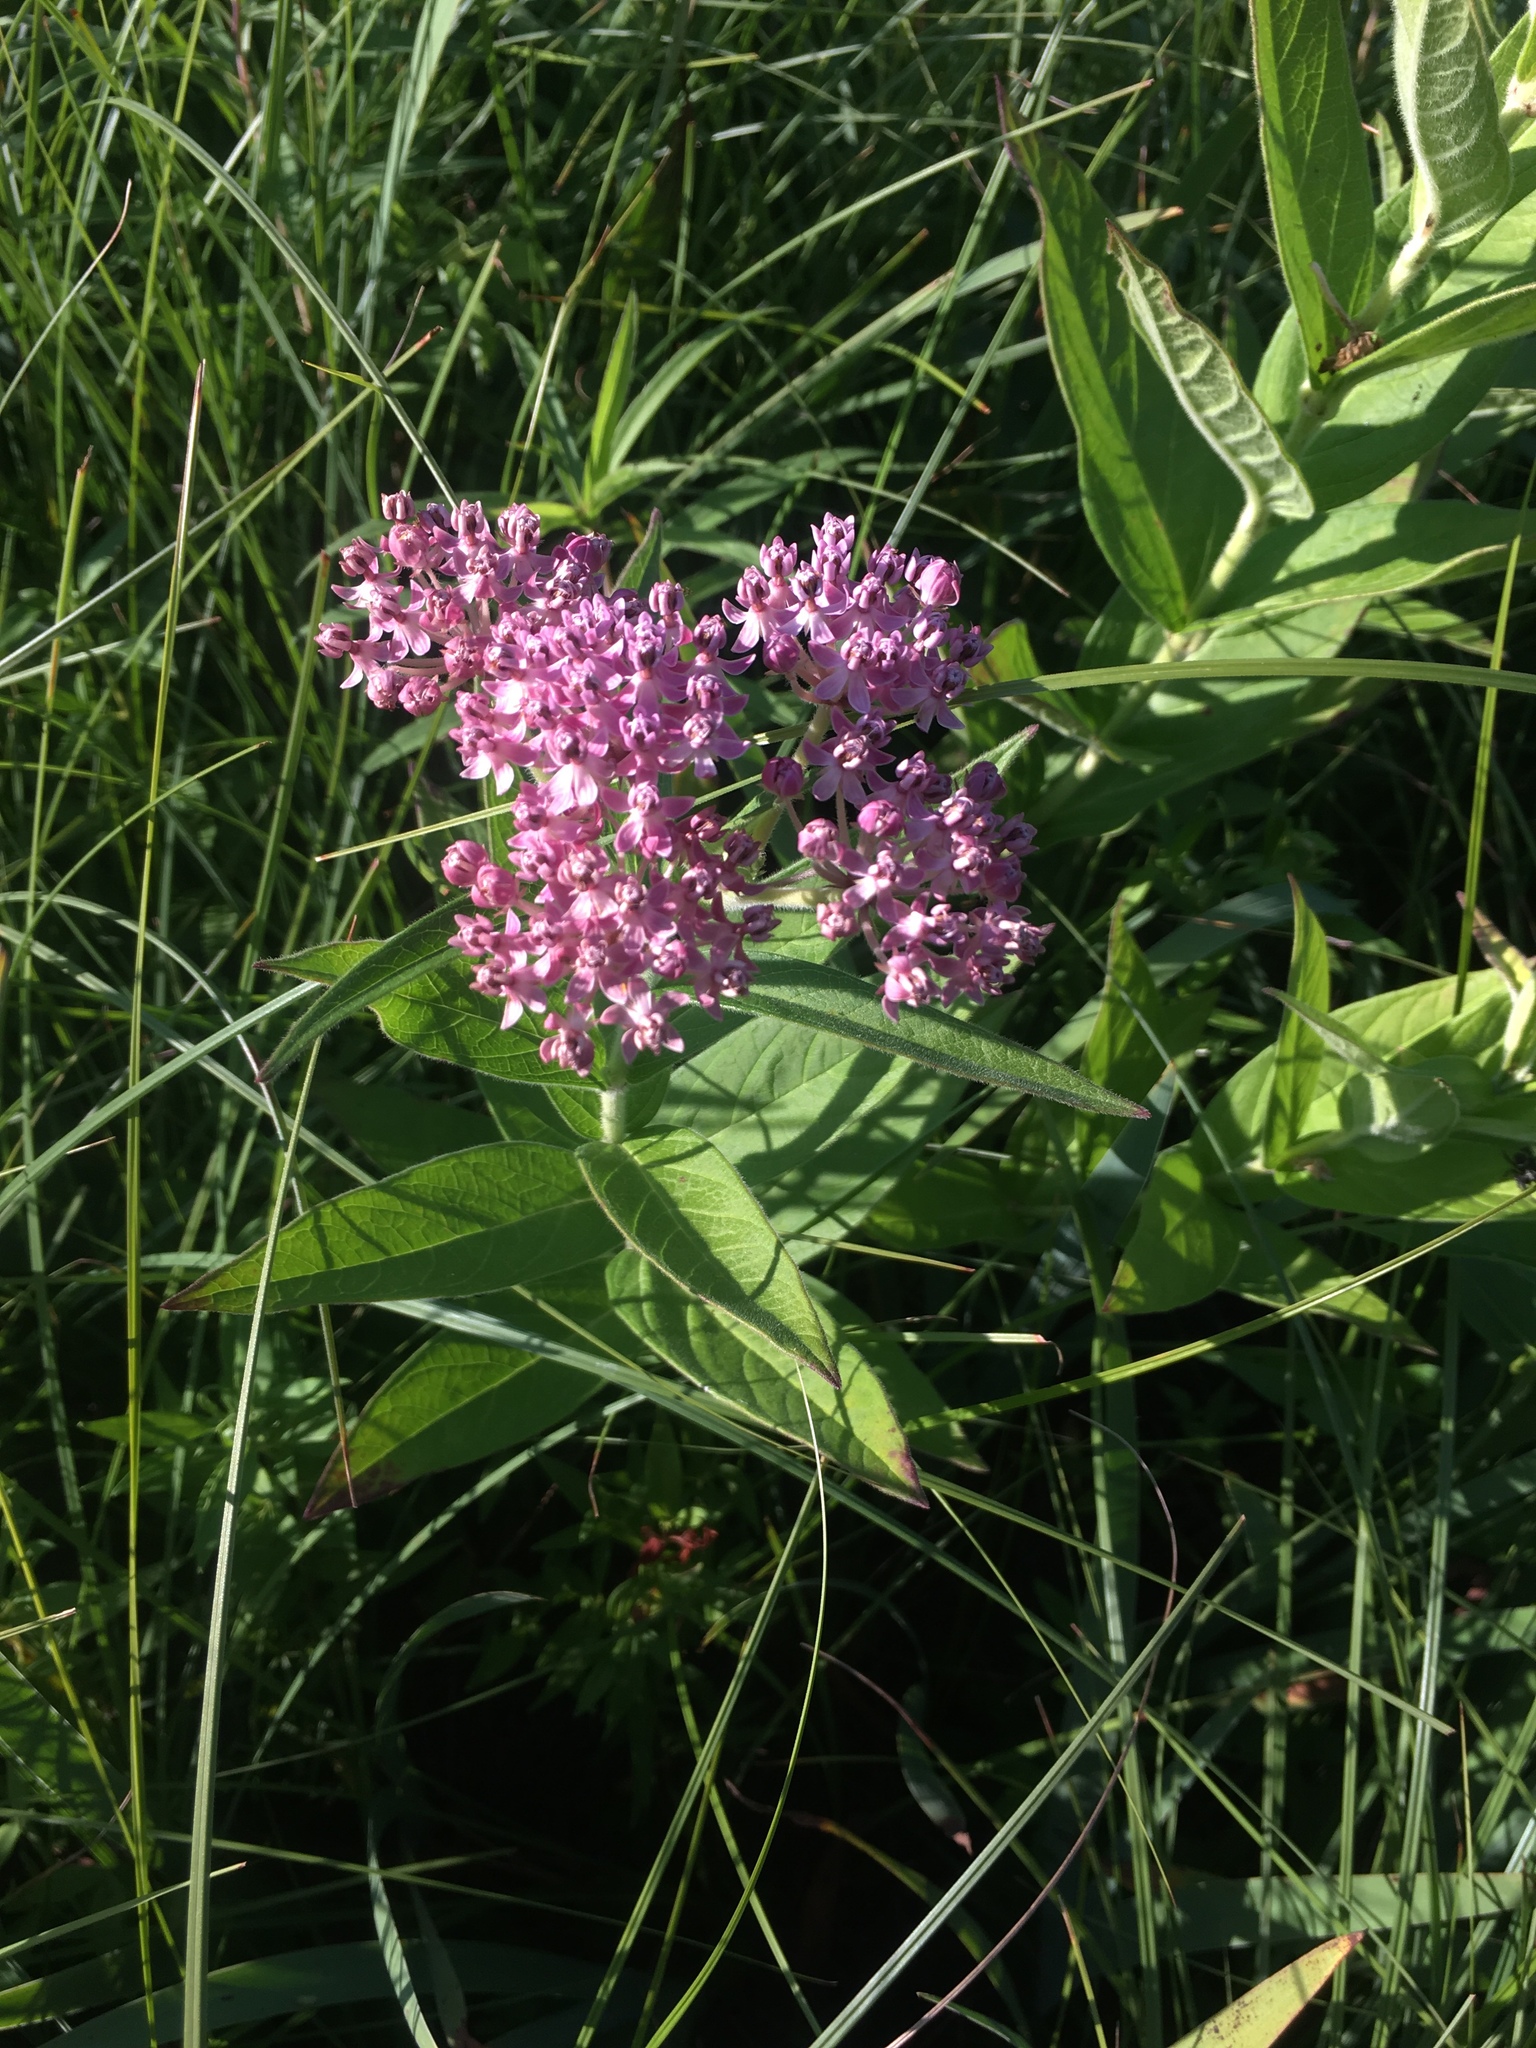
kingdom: Plantae
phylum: Tracheophyta
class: Magnoliopsida
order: Gentianales
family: Apocynaceae
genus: Asclepias
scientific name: Asclepias incarnata
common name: Swamp milkweed
